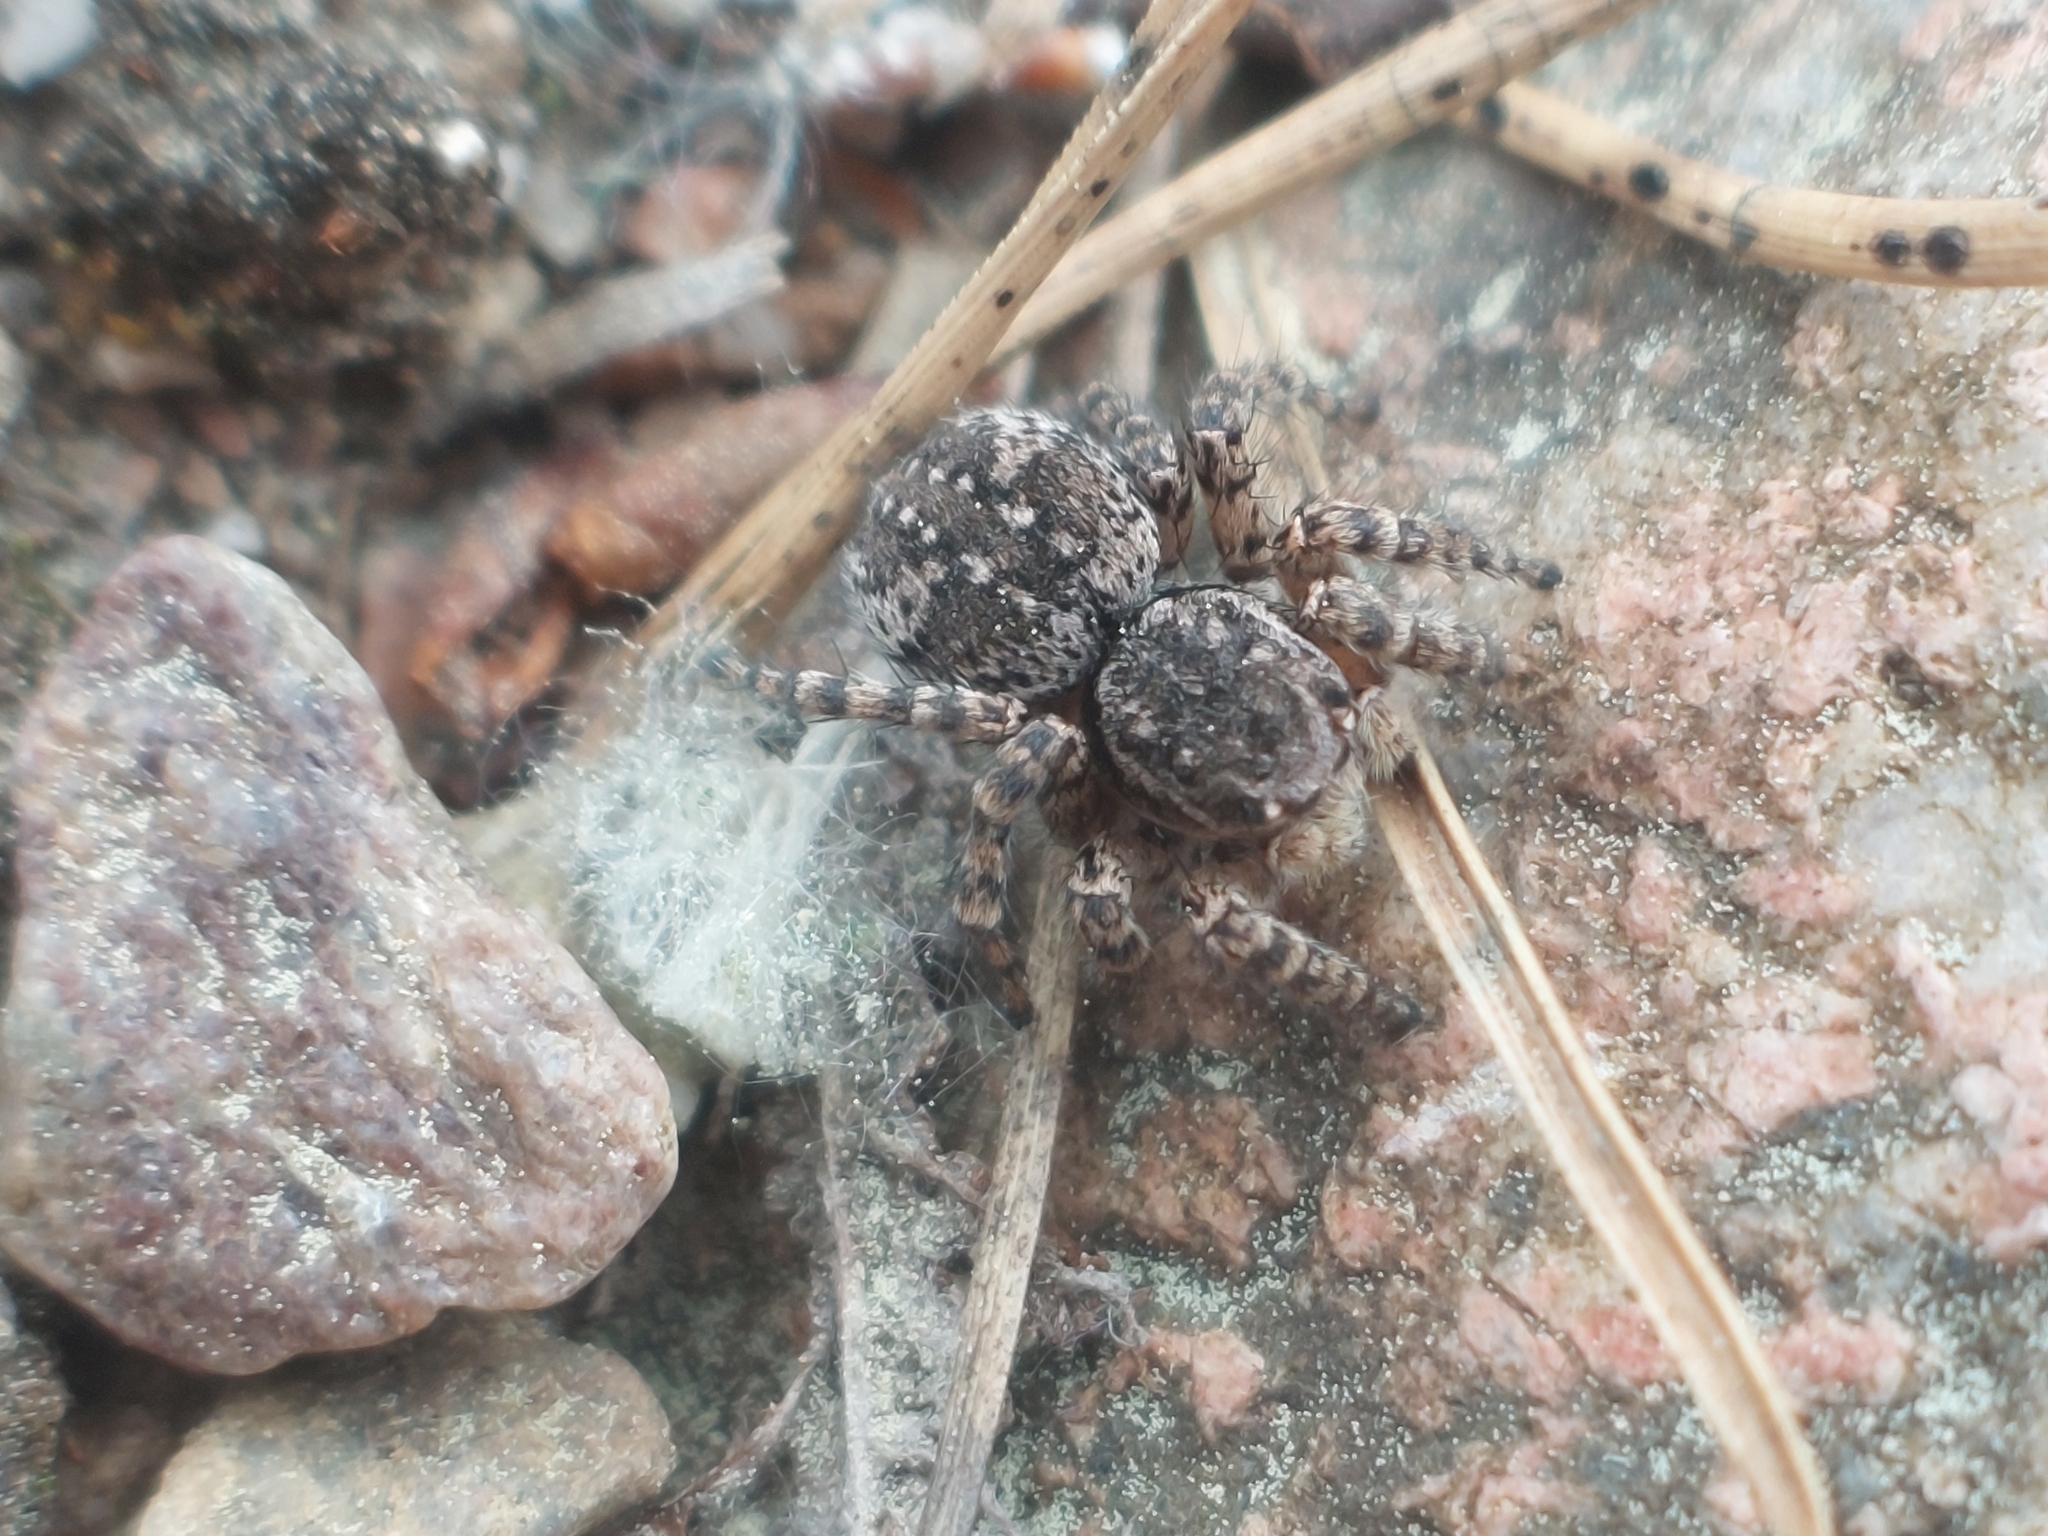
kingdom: Animalia
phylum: Arthropoda
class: Arachnida
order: Araneae
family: Salticidae
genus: Aelurillus
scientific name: Aelurillus v-insignitus
